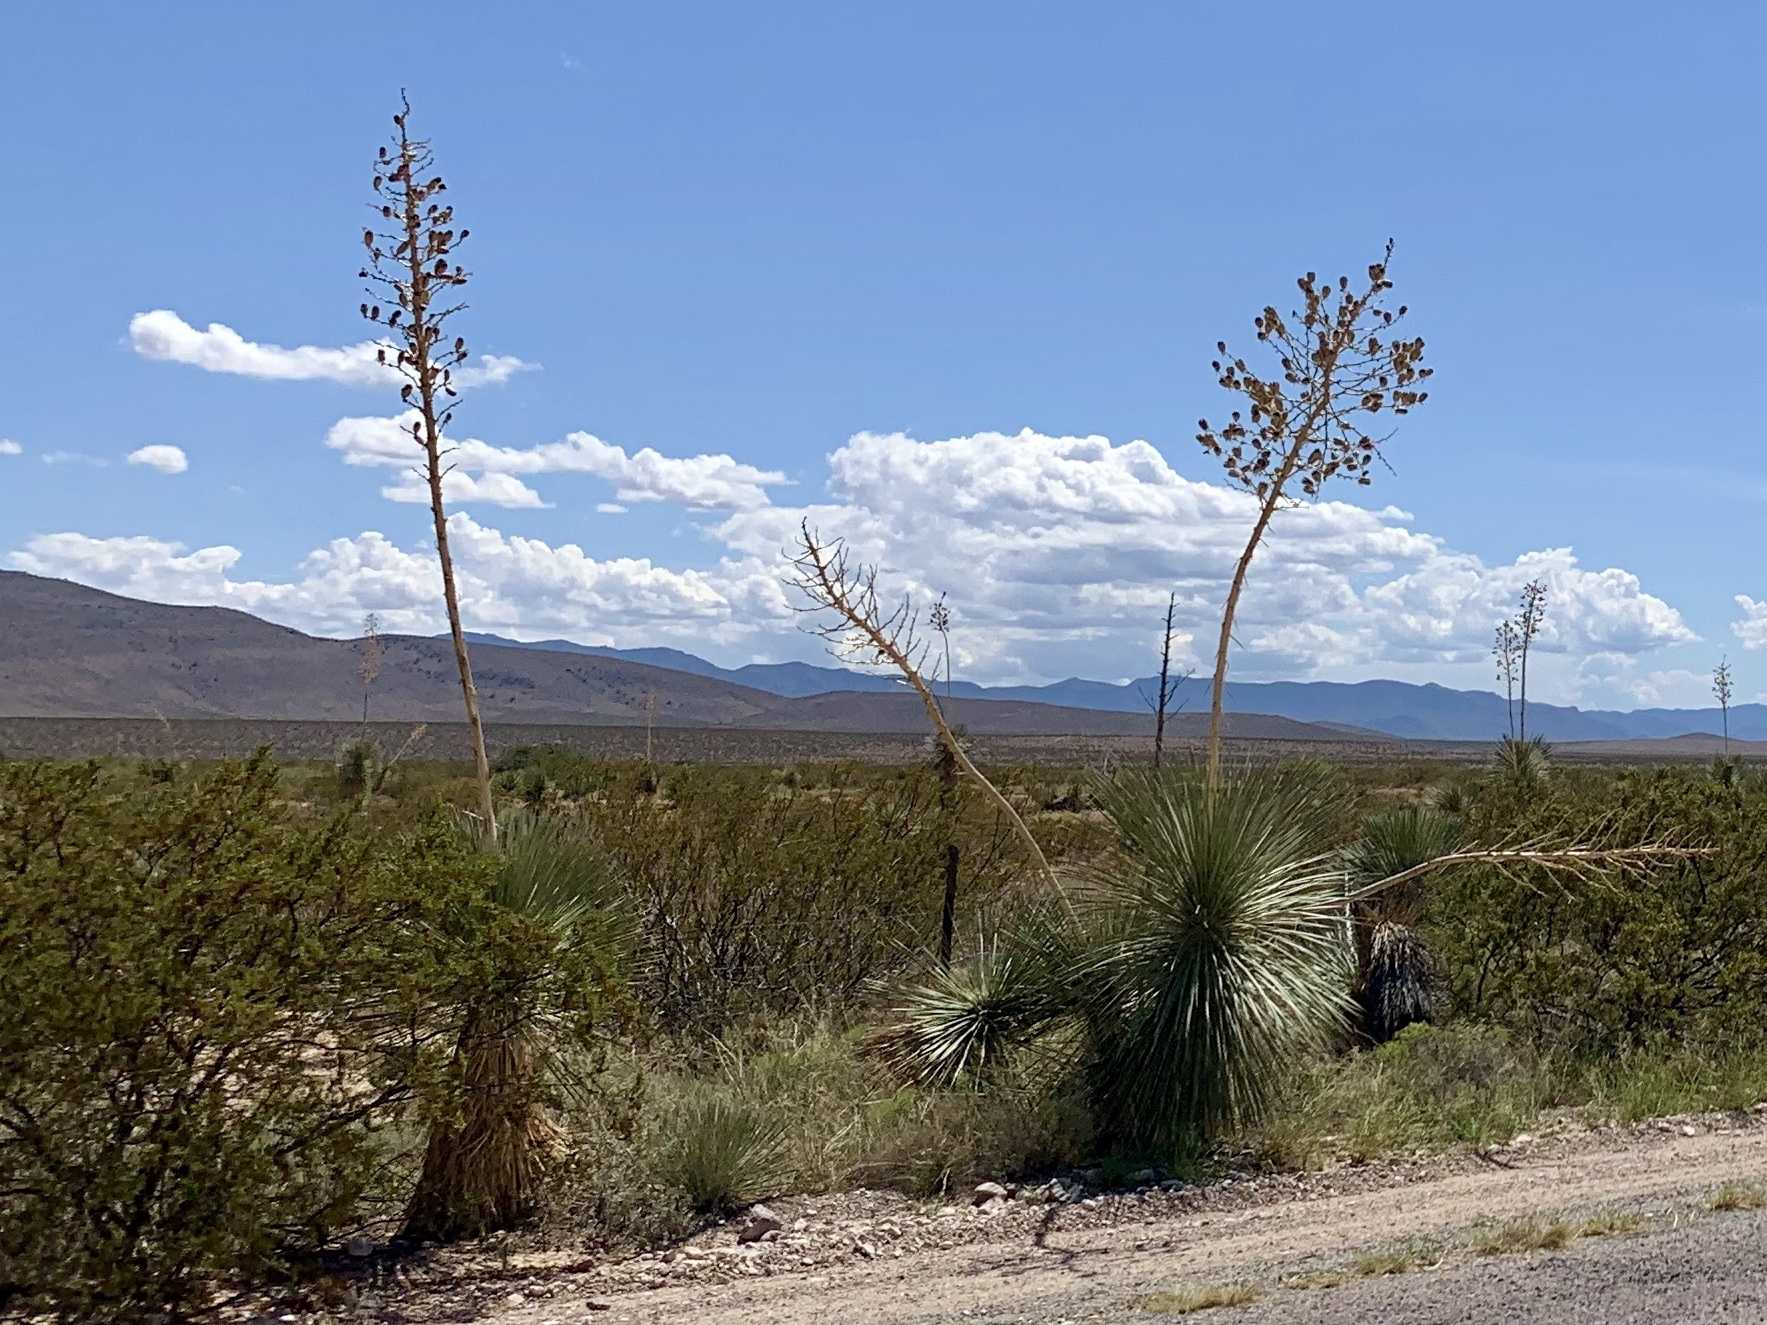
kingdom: Plantae
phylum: Tracheophyta
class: Liliopsida
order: Asparagales
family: Asparagaceae
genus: Yucca
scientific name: Yucca elata
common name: Palmella
